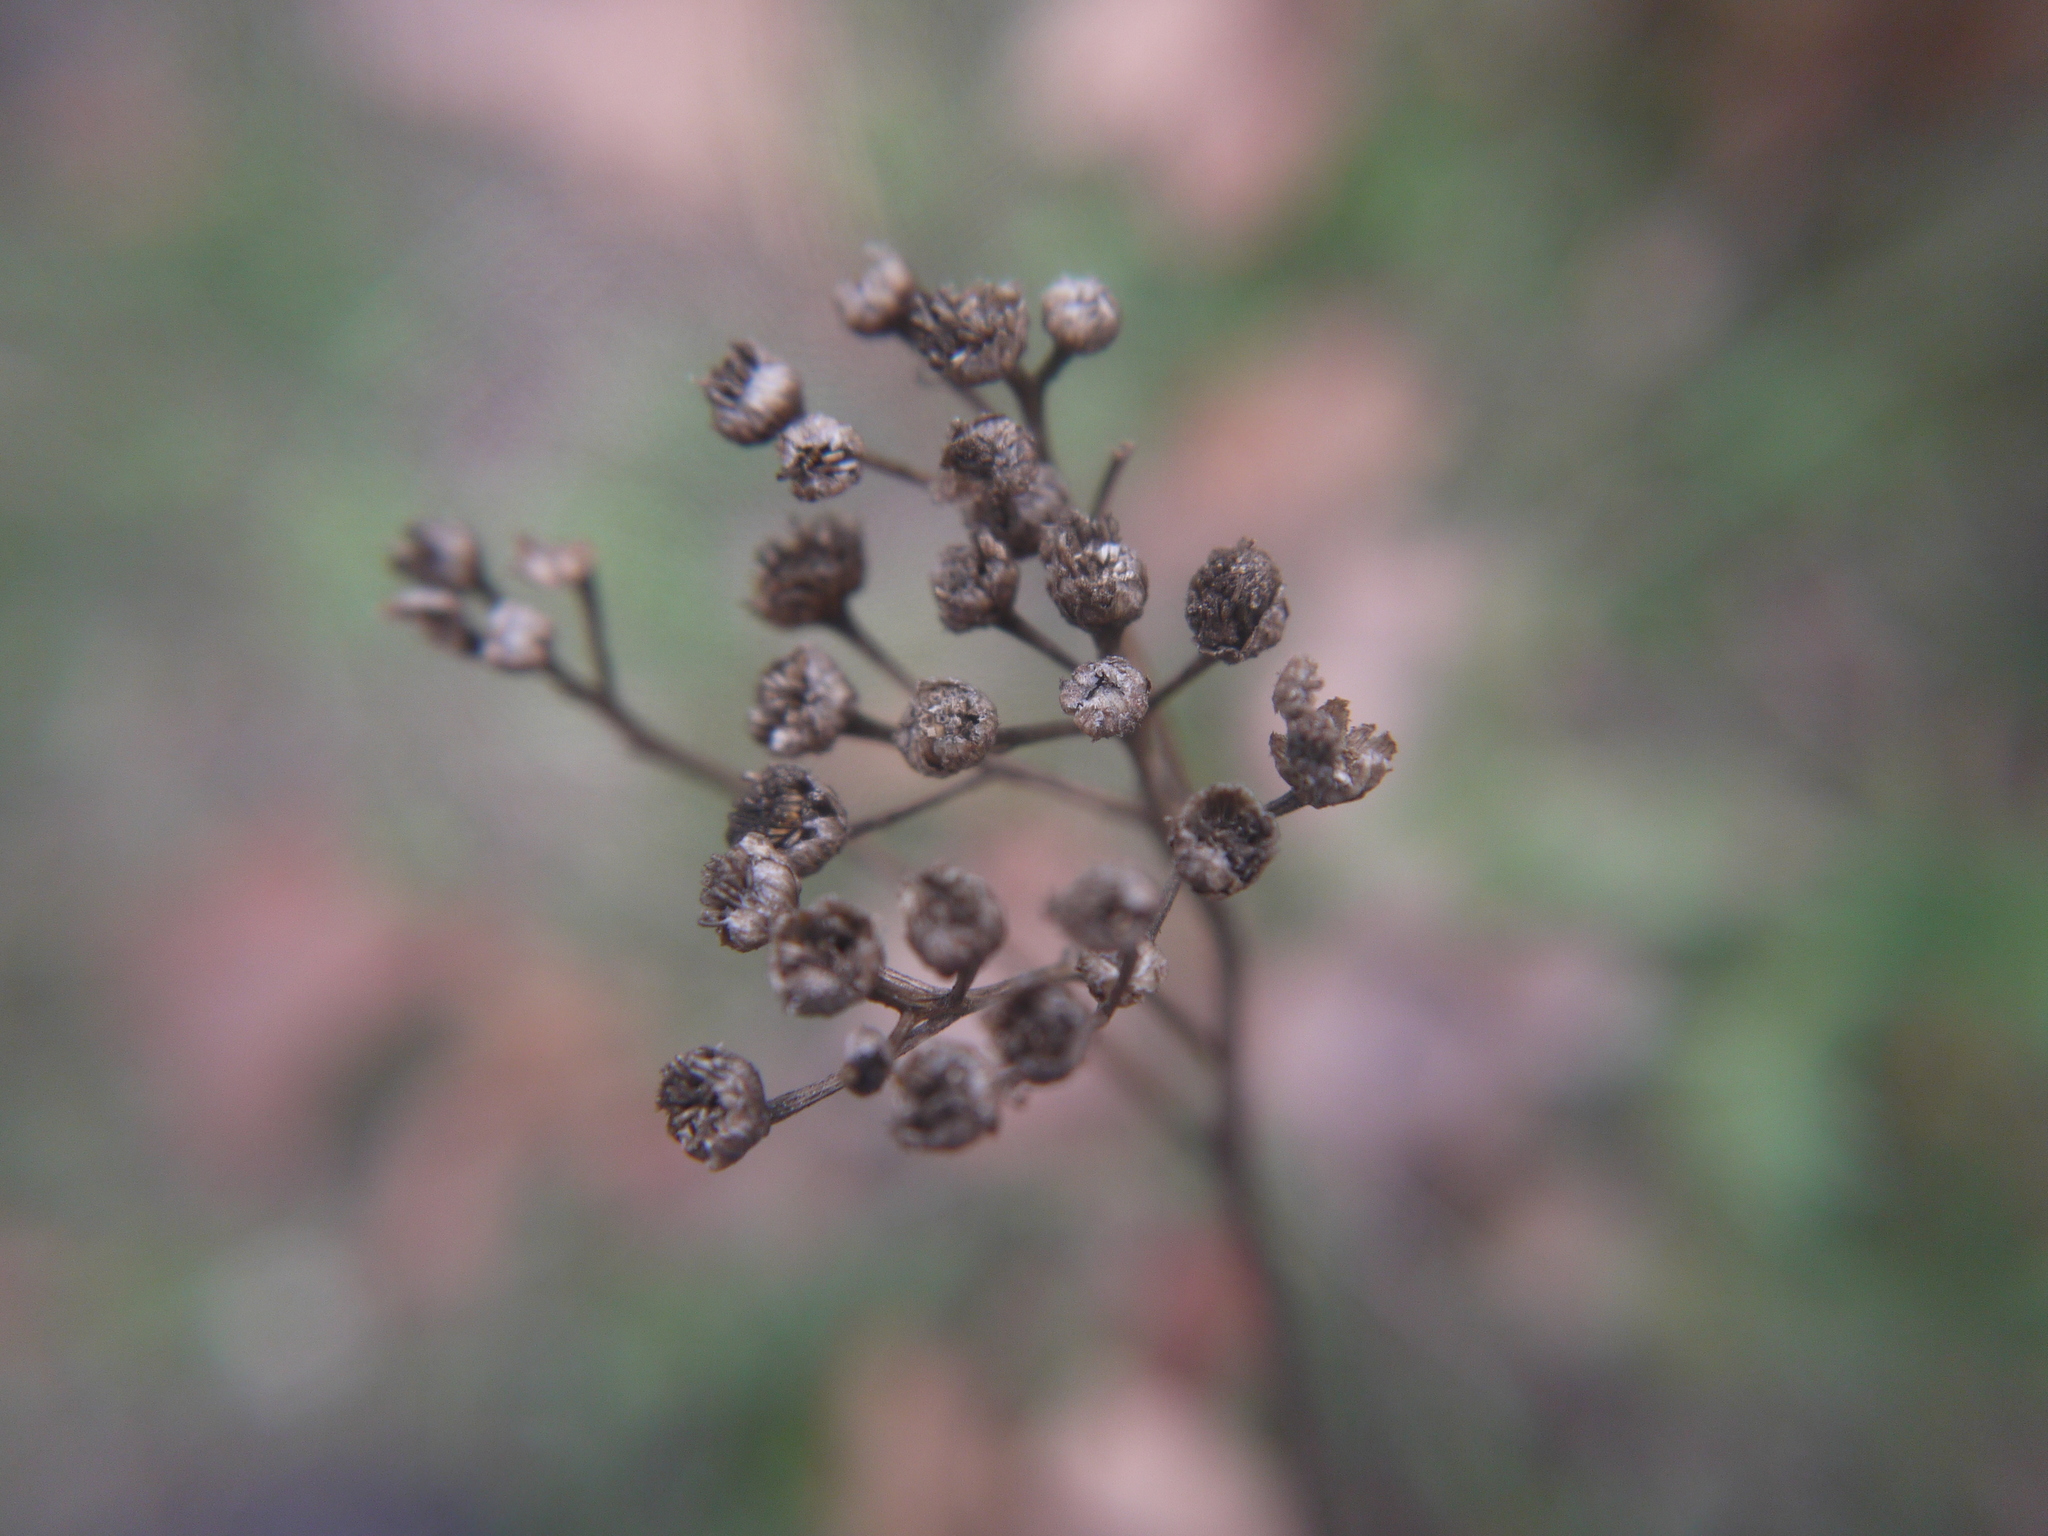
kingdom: Plantae
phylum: Tracheophyta
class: Magnoliopsida
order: Asterales
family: Asteraceae
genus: Tanacetum
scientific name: Tanacetum vulgare
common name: Common tansy
